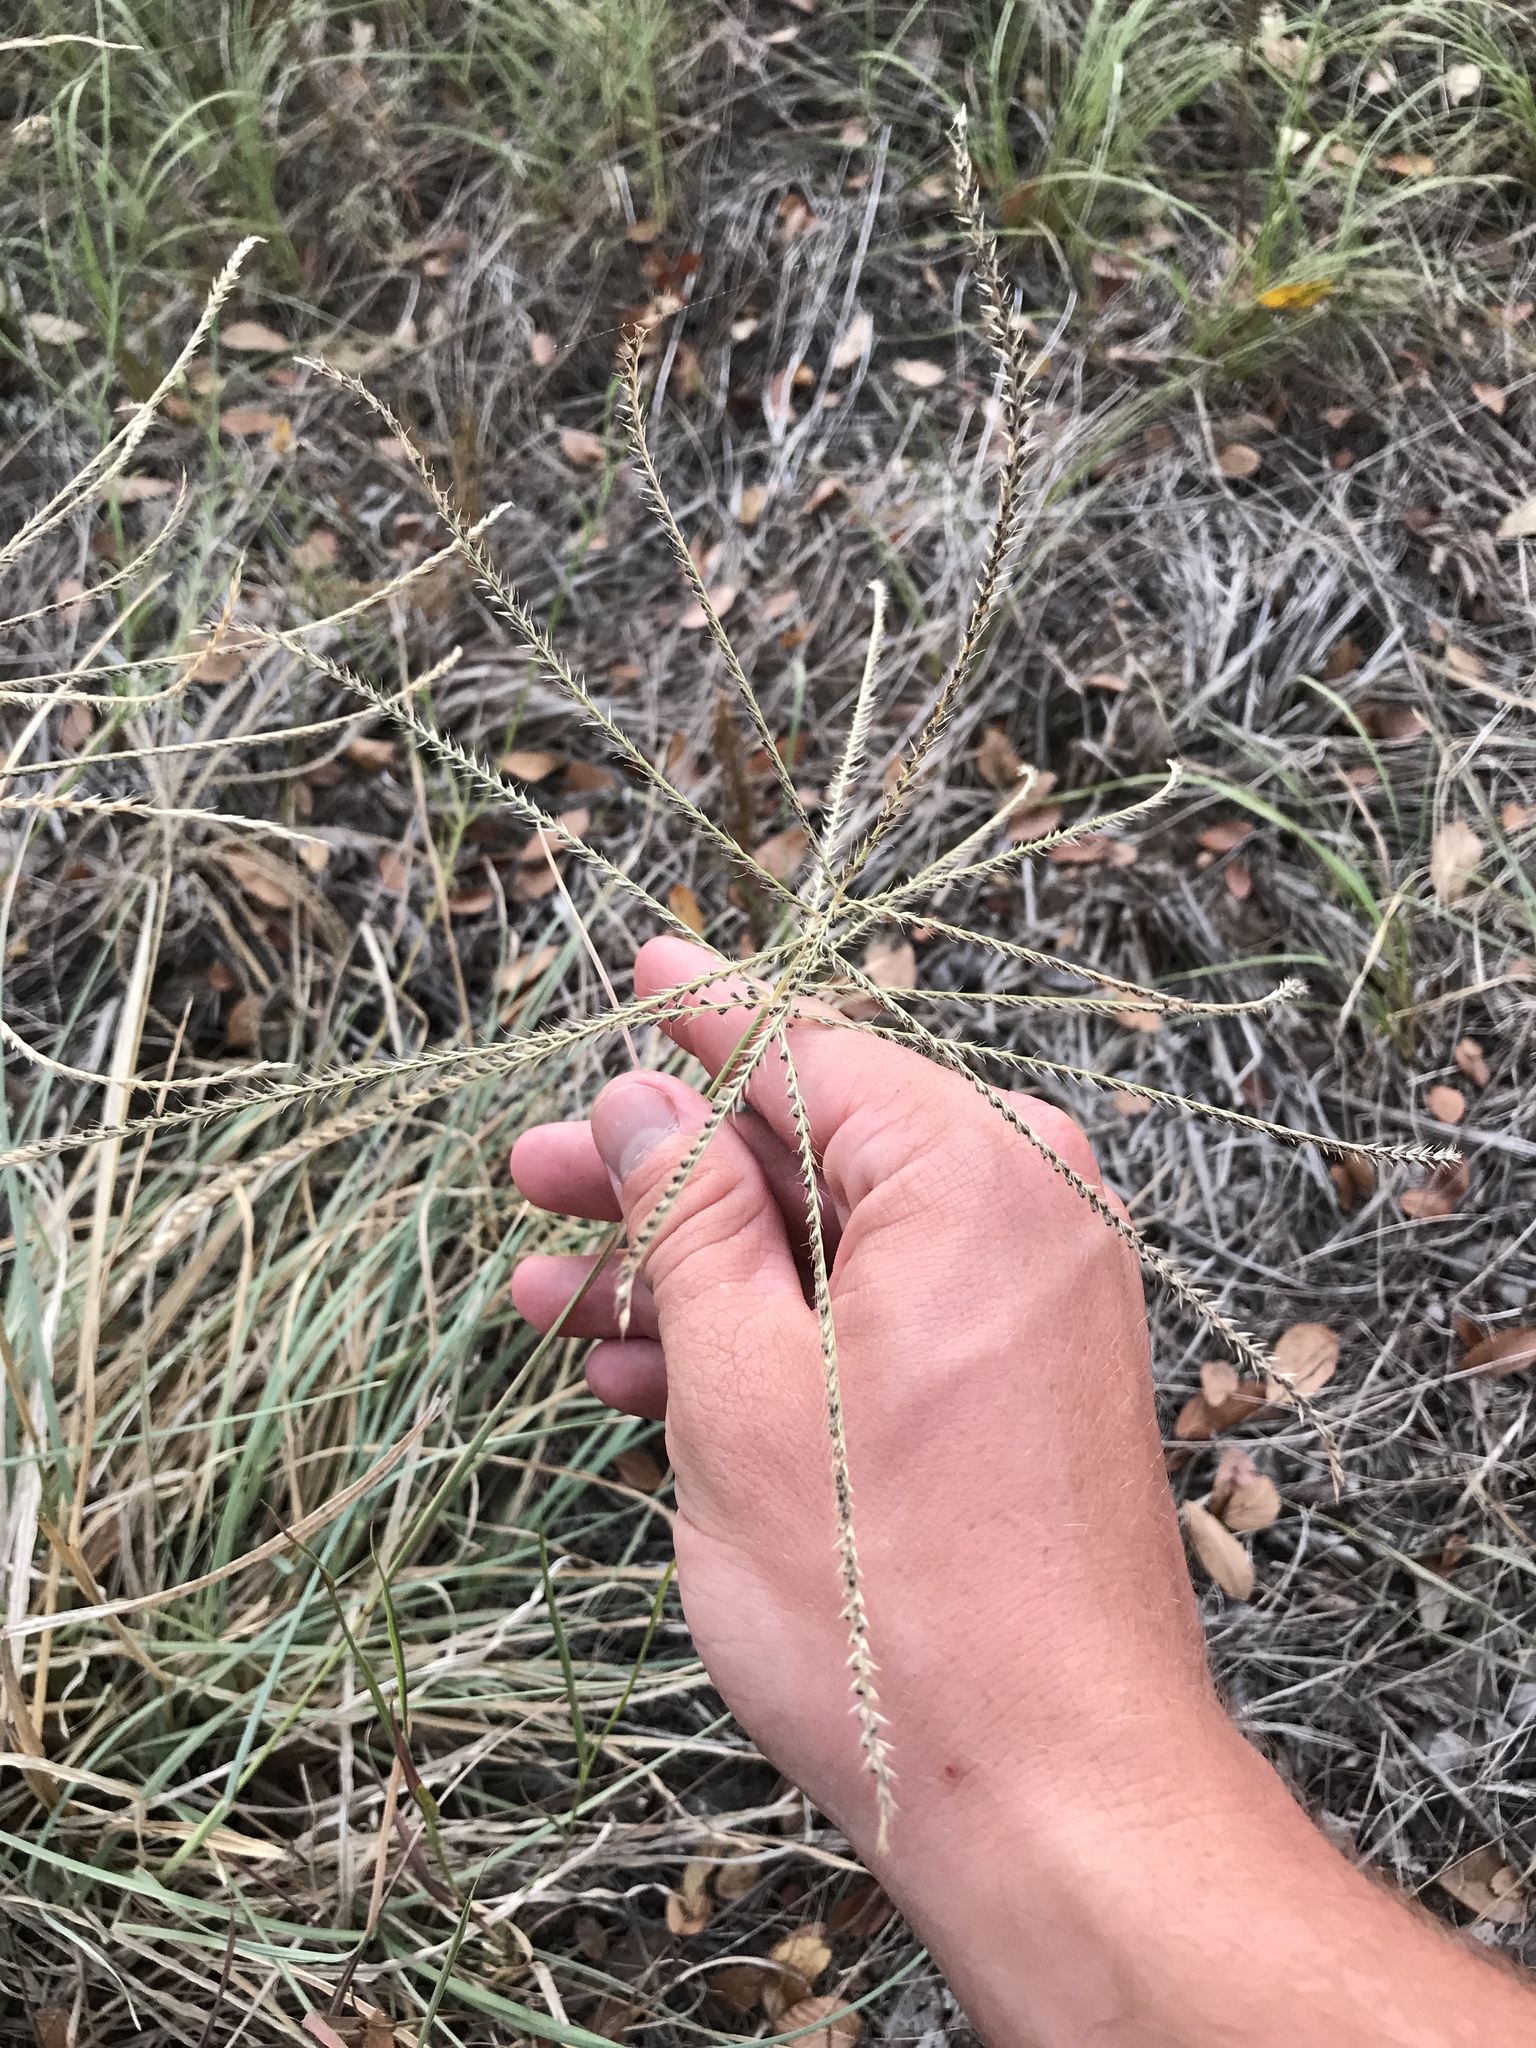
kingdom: Plantae
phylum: Tracheophyta
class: Liliopsida
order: Poales
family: Poaceae
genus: Chloris
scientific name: Chloris verticillata
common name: Tumble windmill grass
